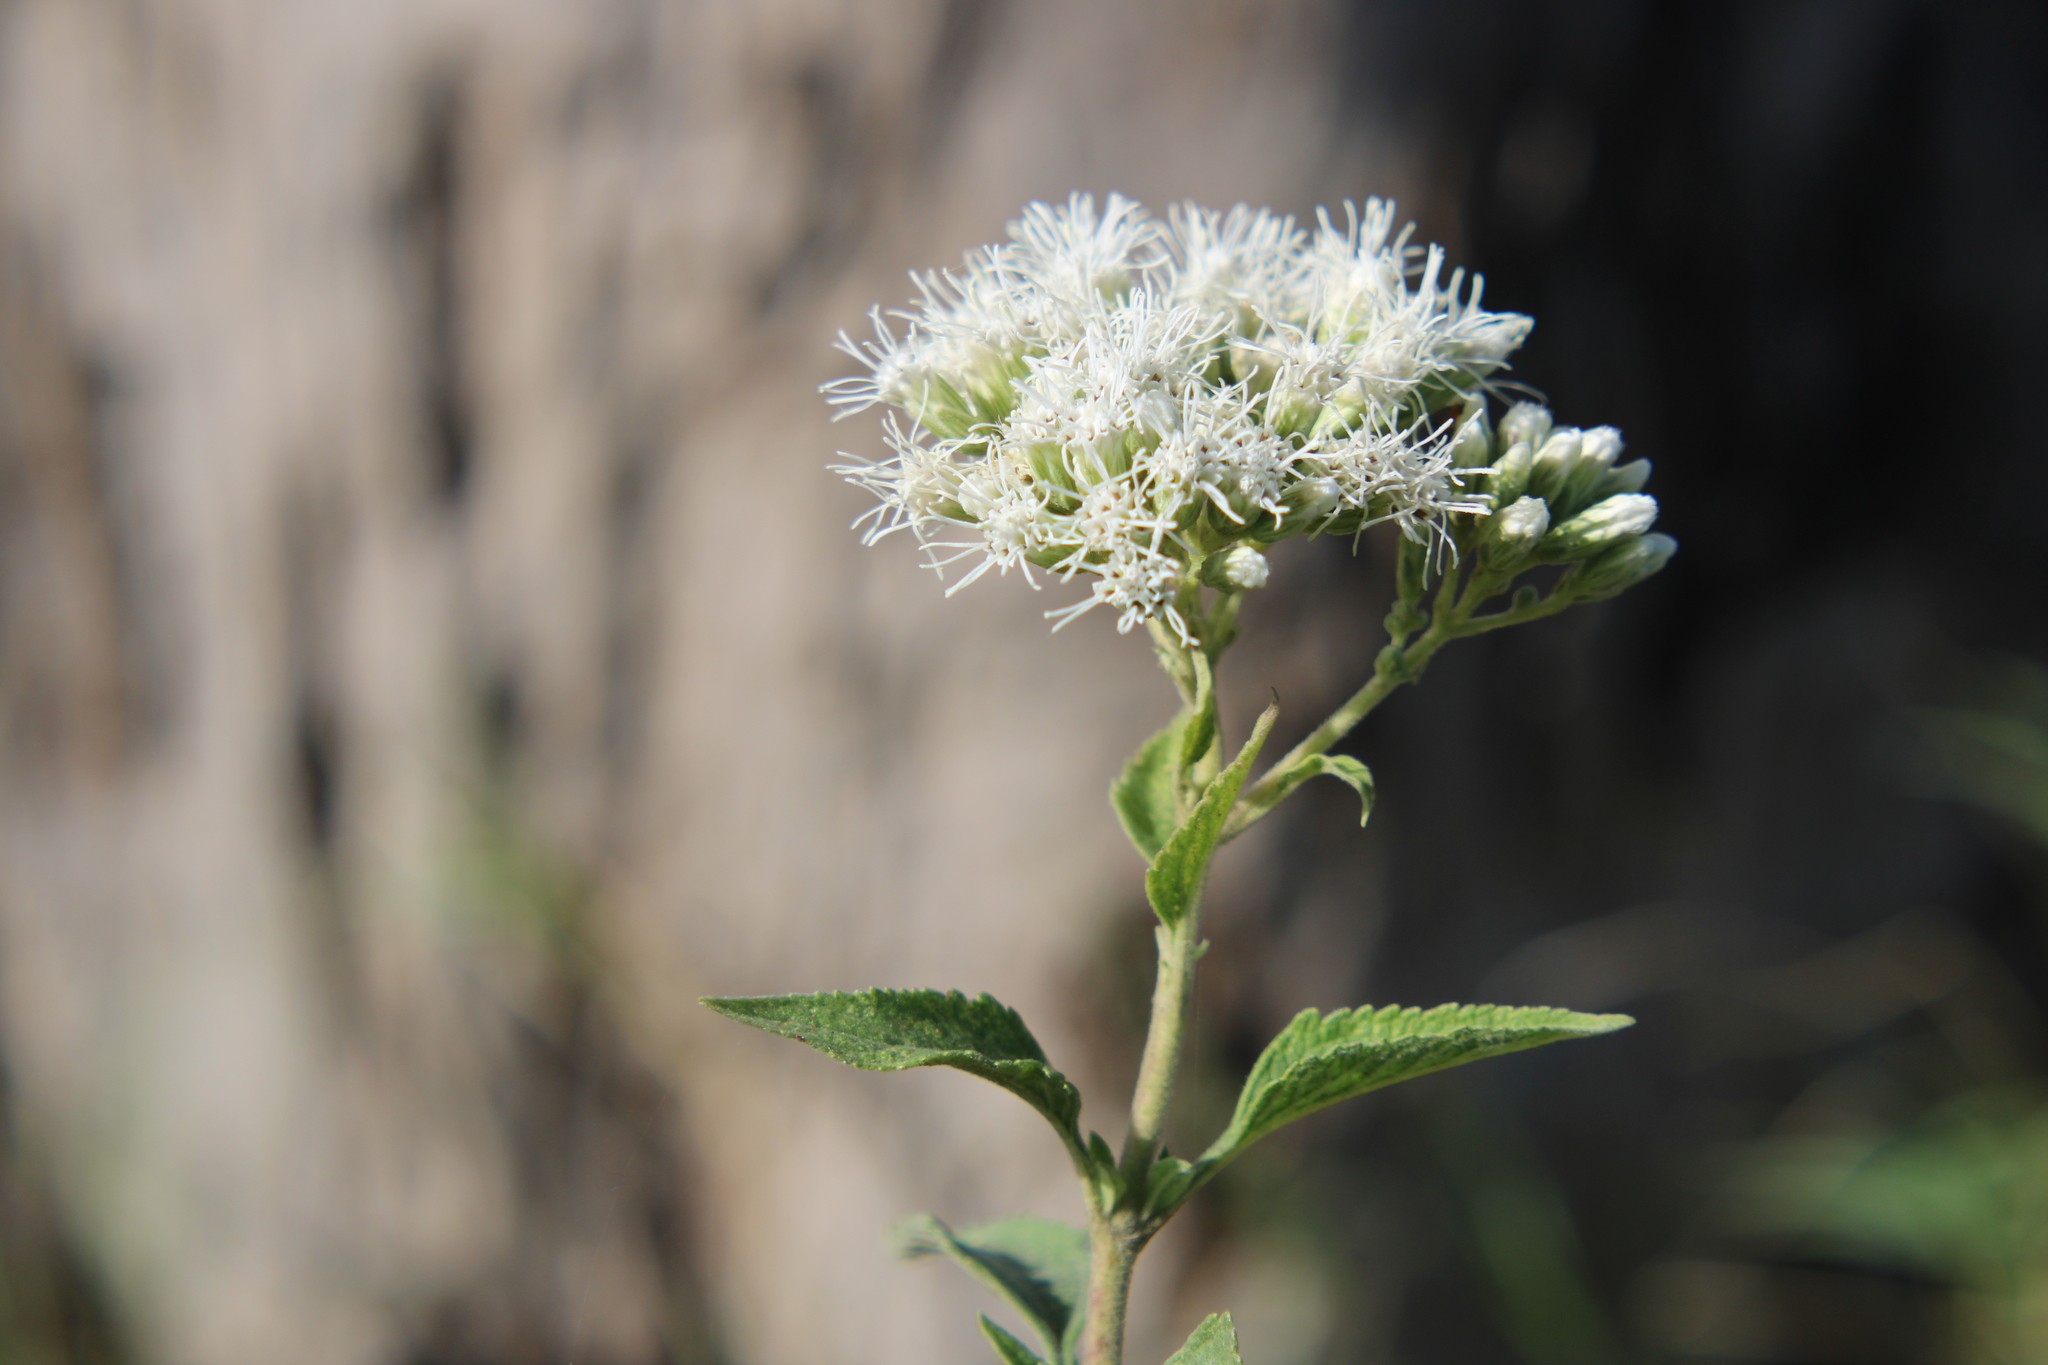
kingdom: Plantae
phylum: Tracheophyta
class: Magnoliopsida
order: Asterales
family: Asteraceae
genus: Austroeupatorium
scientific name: Austroeupatorium inulifolium
